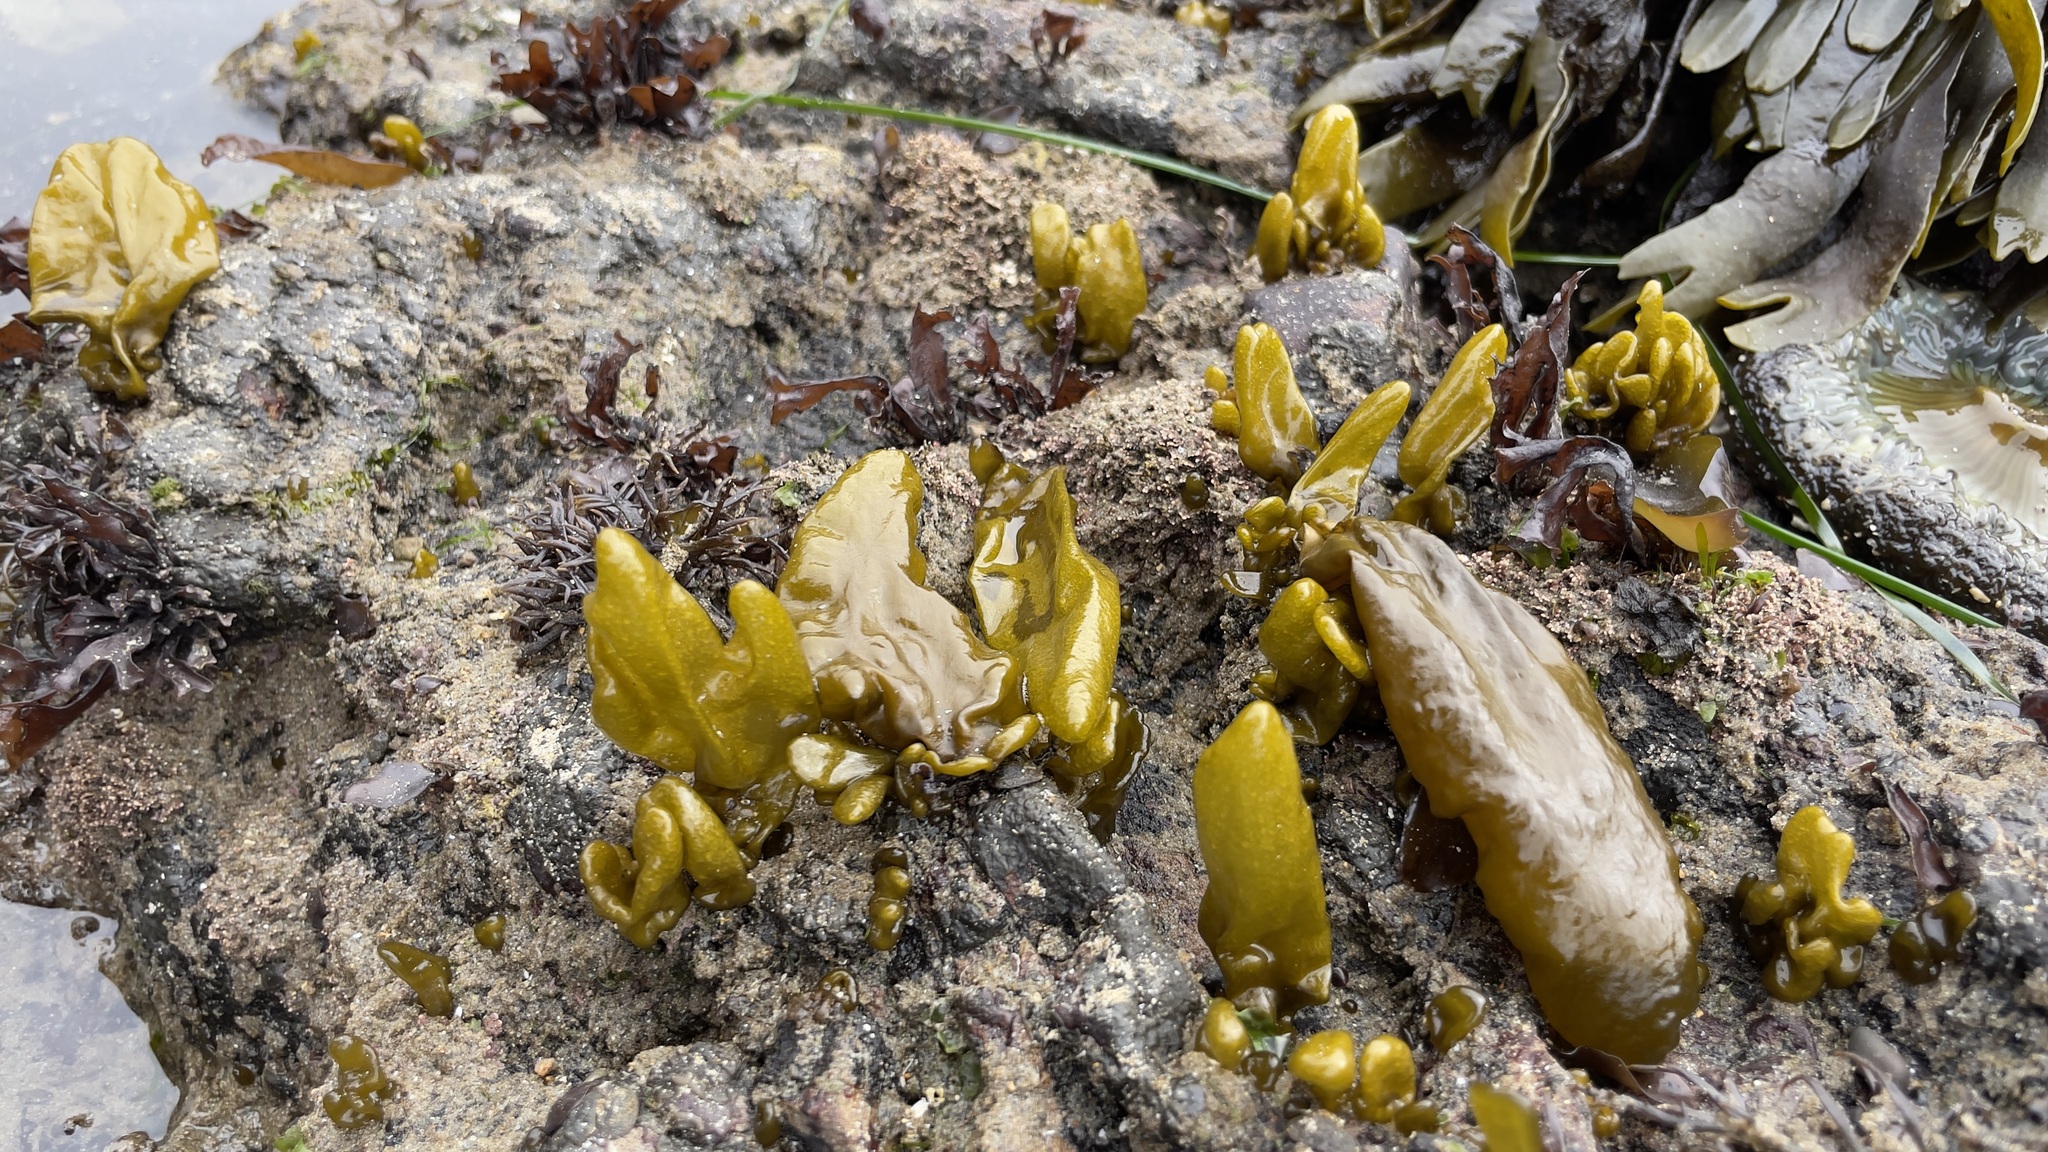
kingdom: Plantae
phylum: Rhodophyta
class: Florideophyceae
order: Palmariales
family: Palmariaceae
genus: Halosaccion
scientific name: Halosaccion glandiforme
